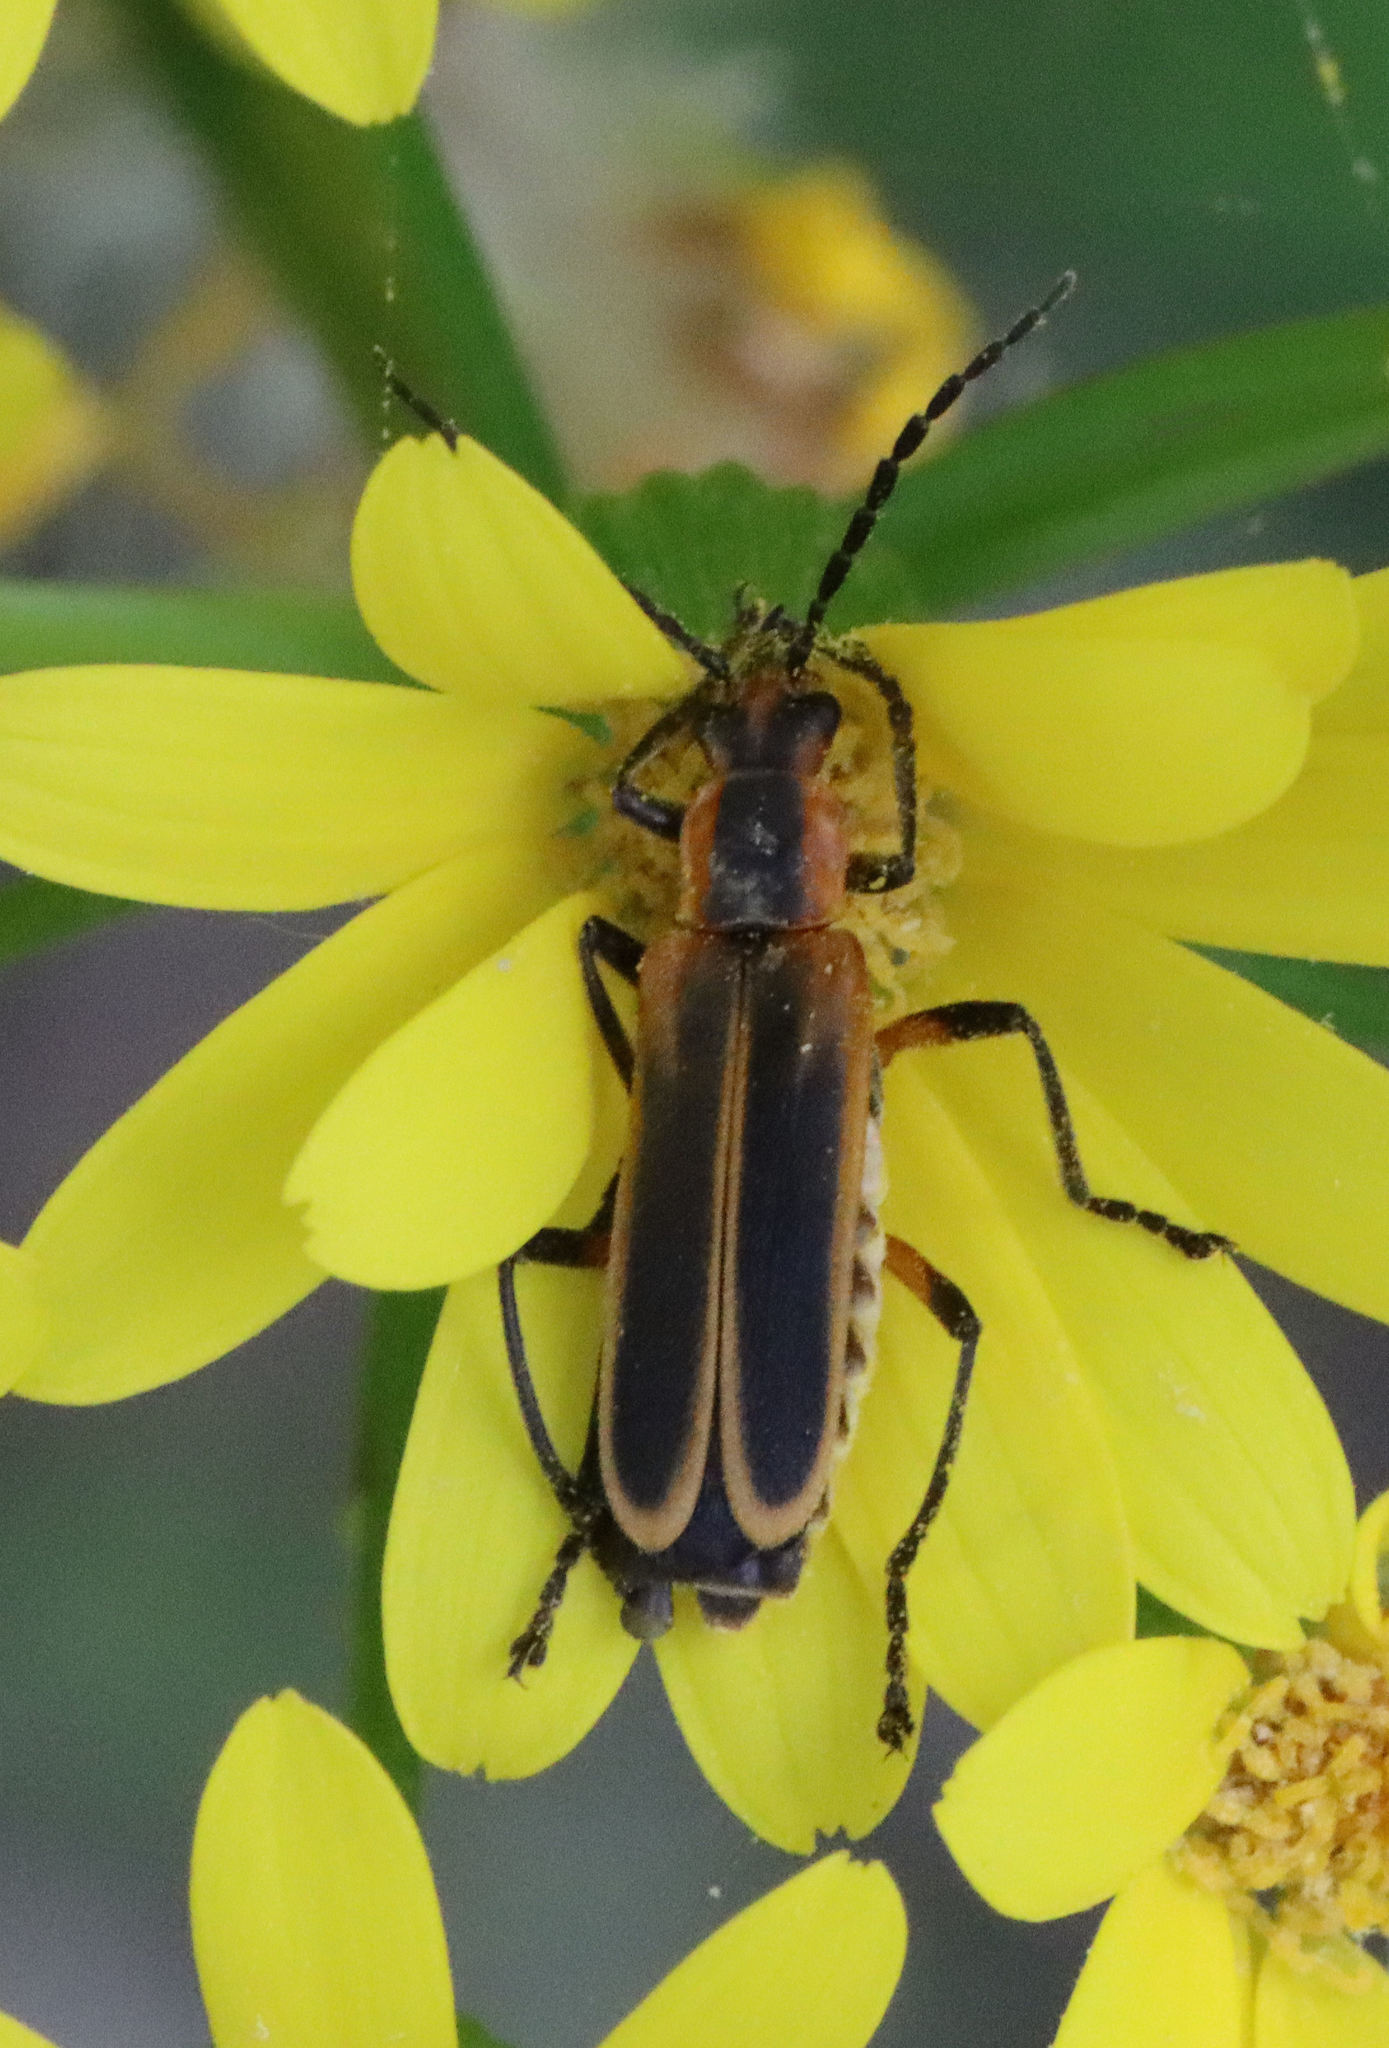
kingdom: Animalia
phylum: Arthropoda
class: Insecta
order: Coleoptera
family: Cantharidae
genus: Chauliognathus
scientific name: Chauliognathus marginatus
